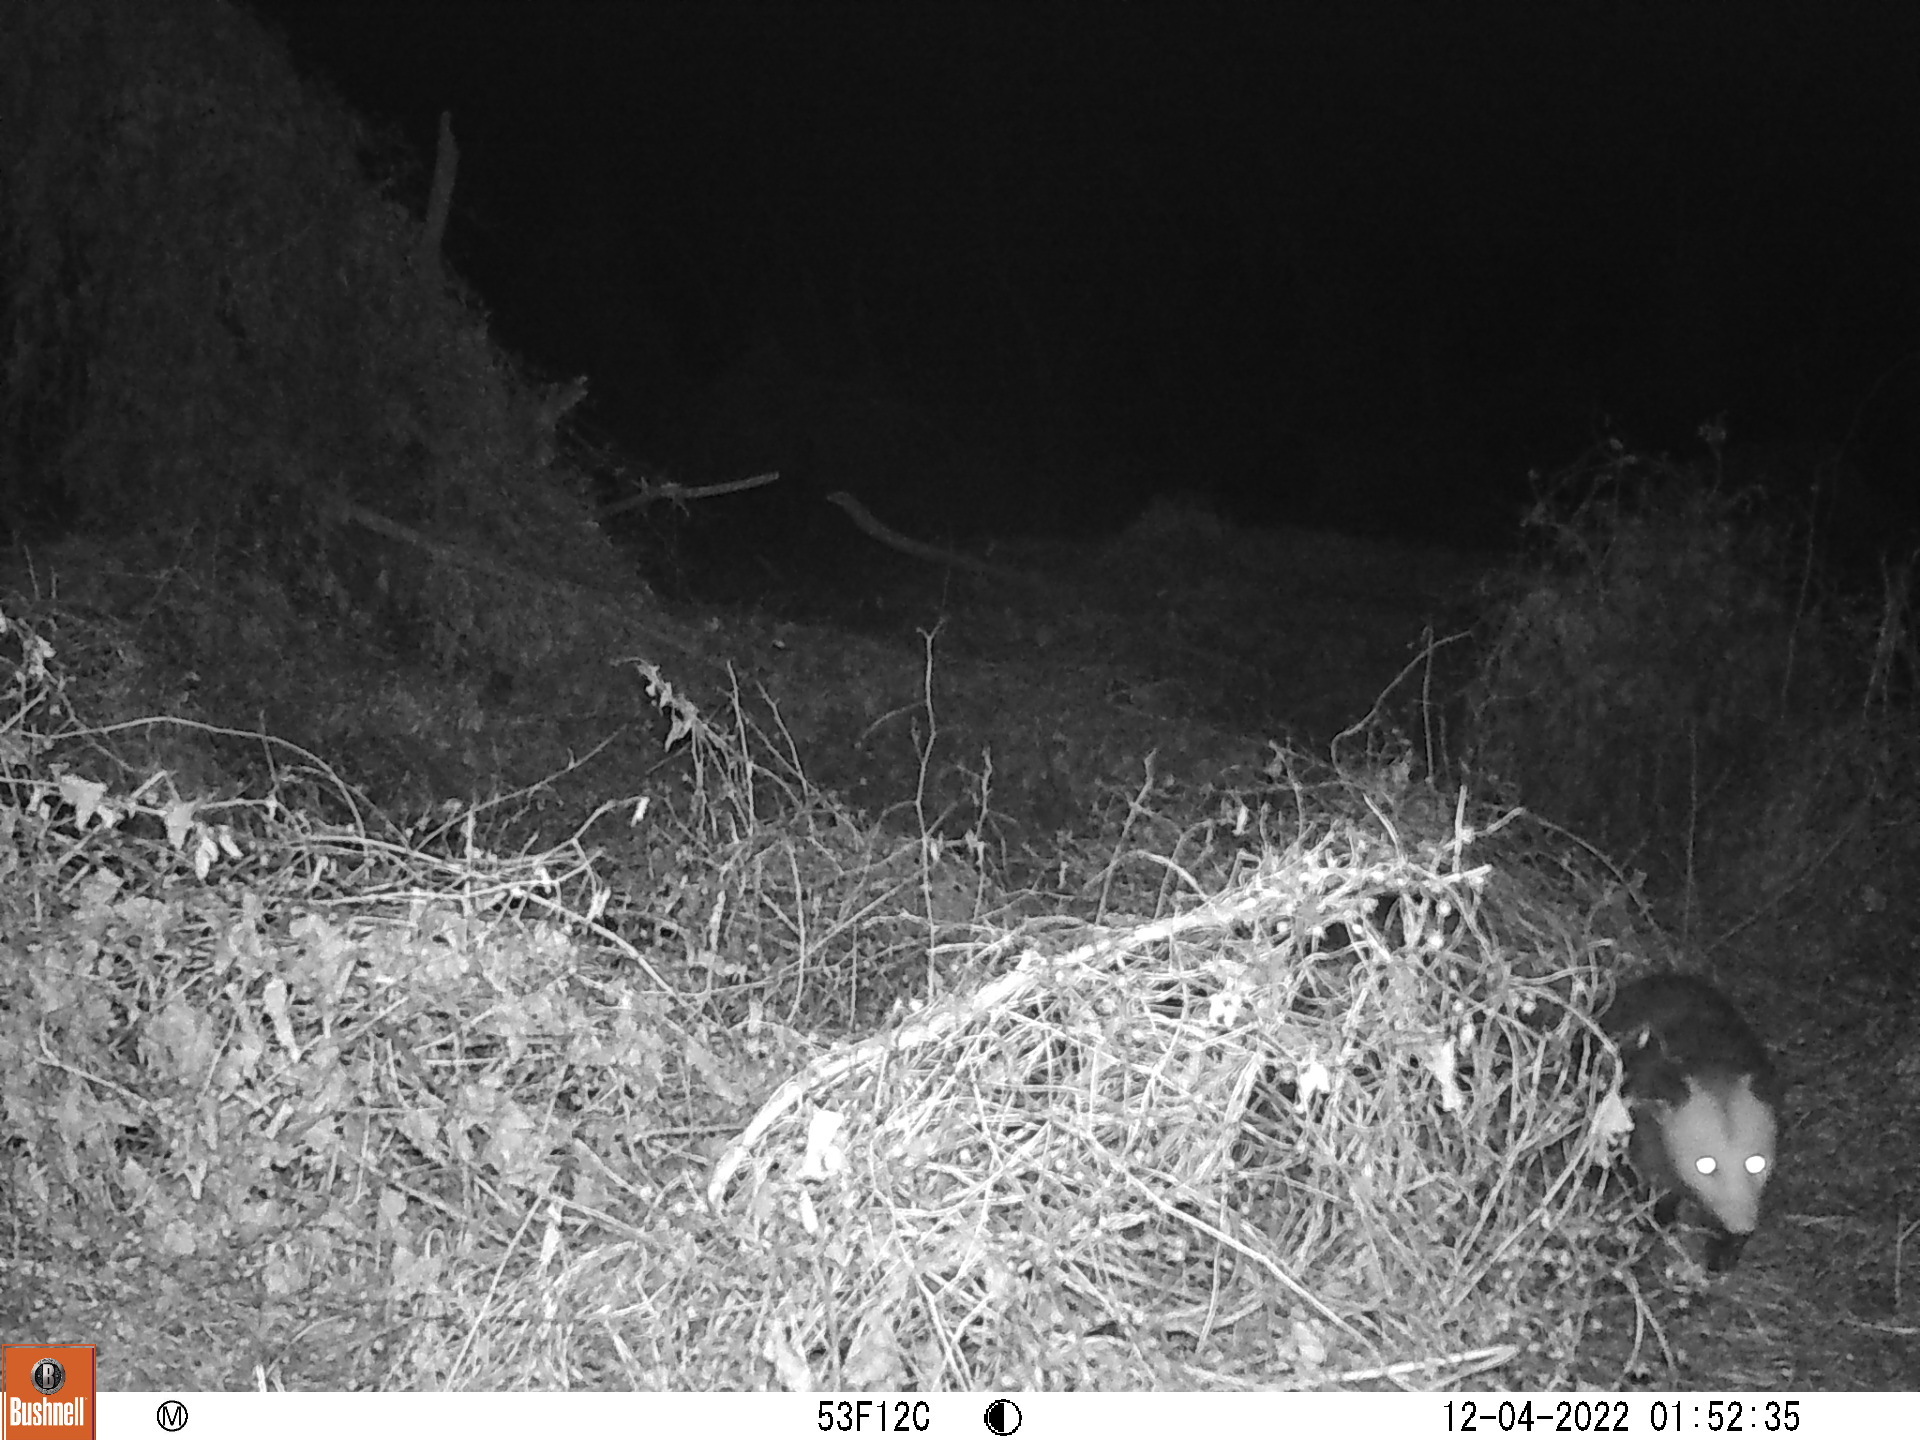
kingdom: Animalia
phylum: Chordata
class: Mammalia
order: Didelphimorphia
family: Didelphidae
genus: Didelphis
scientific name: Didelphis virginiana
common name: Virginia opossum
